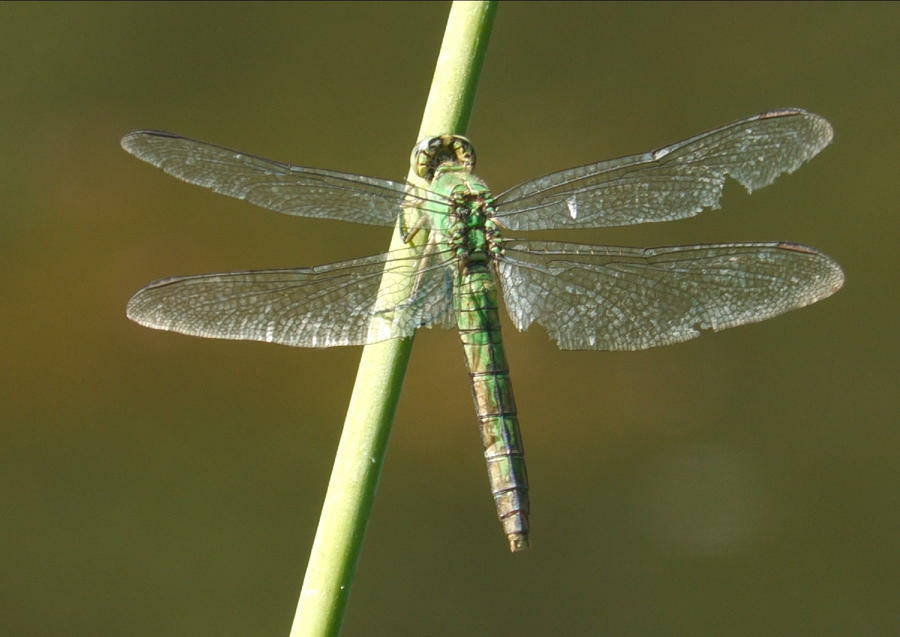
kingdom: Animalia
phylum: Arthropoda
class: Insecta
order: Odonata
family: Libellulidae
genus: Erythemis
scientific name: Erythemis collocata
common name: Western pondhawk
